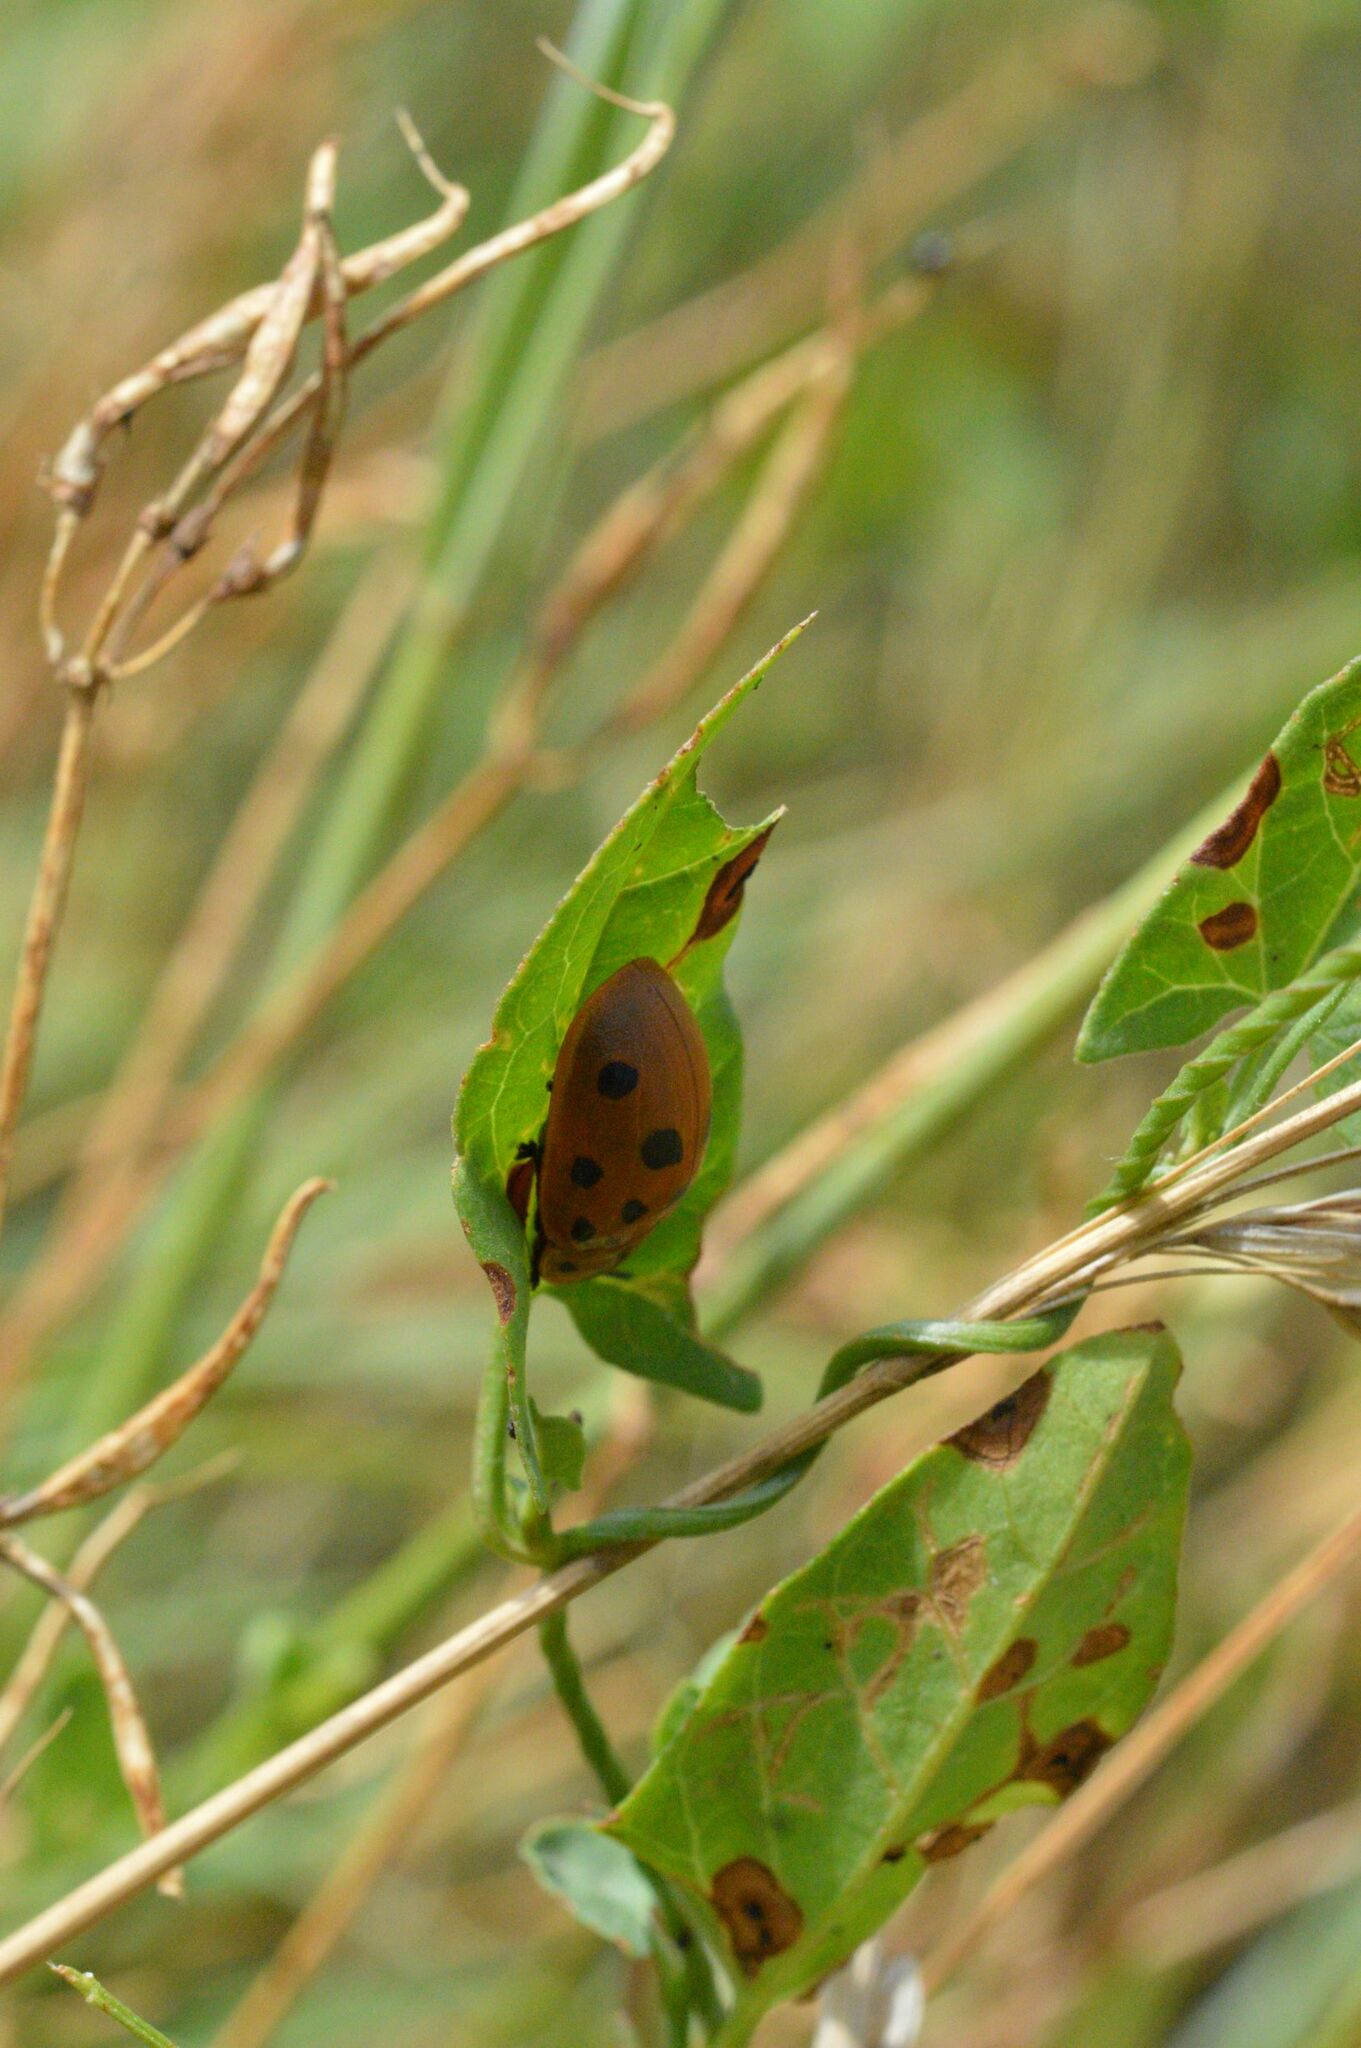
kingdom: Animalia
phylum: Arthropoda
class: Insecta
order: Coleoptera
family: Chrysomelidae
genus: Chelymorpha
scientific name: Chelymorpha cassidea
